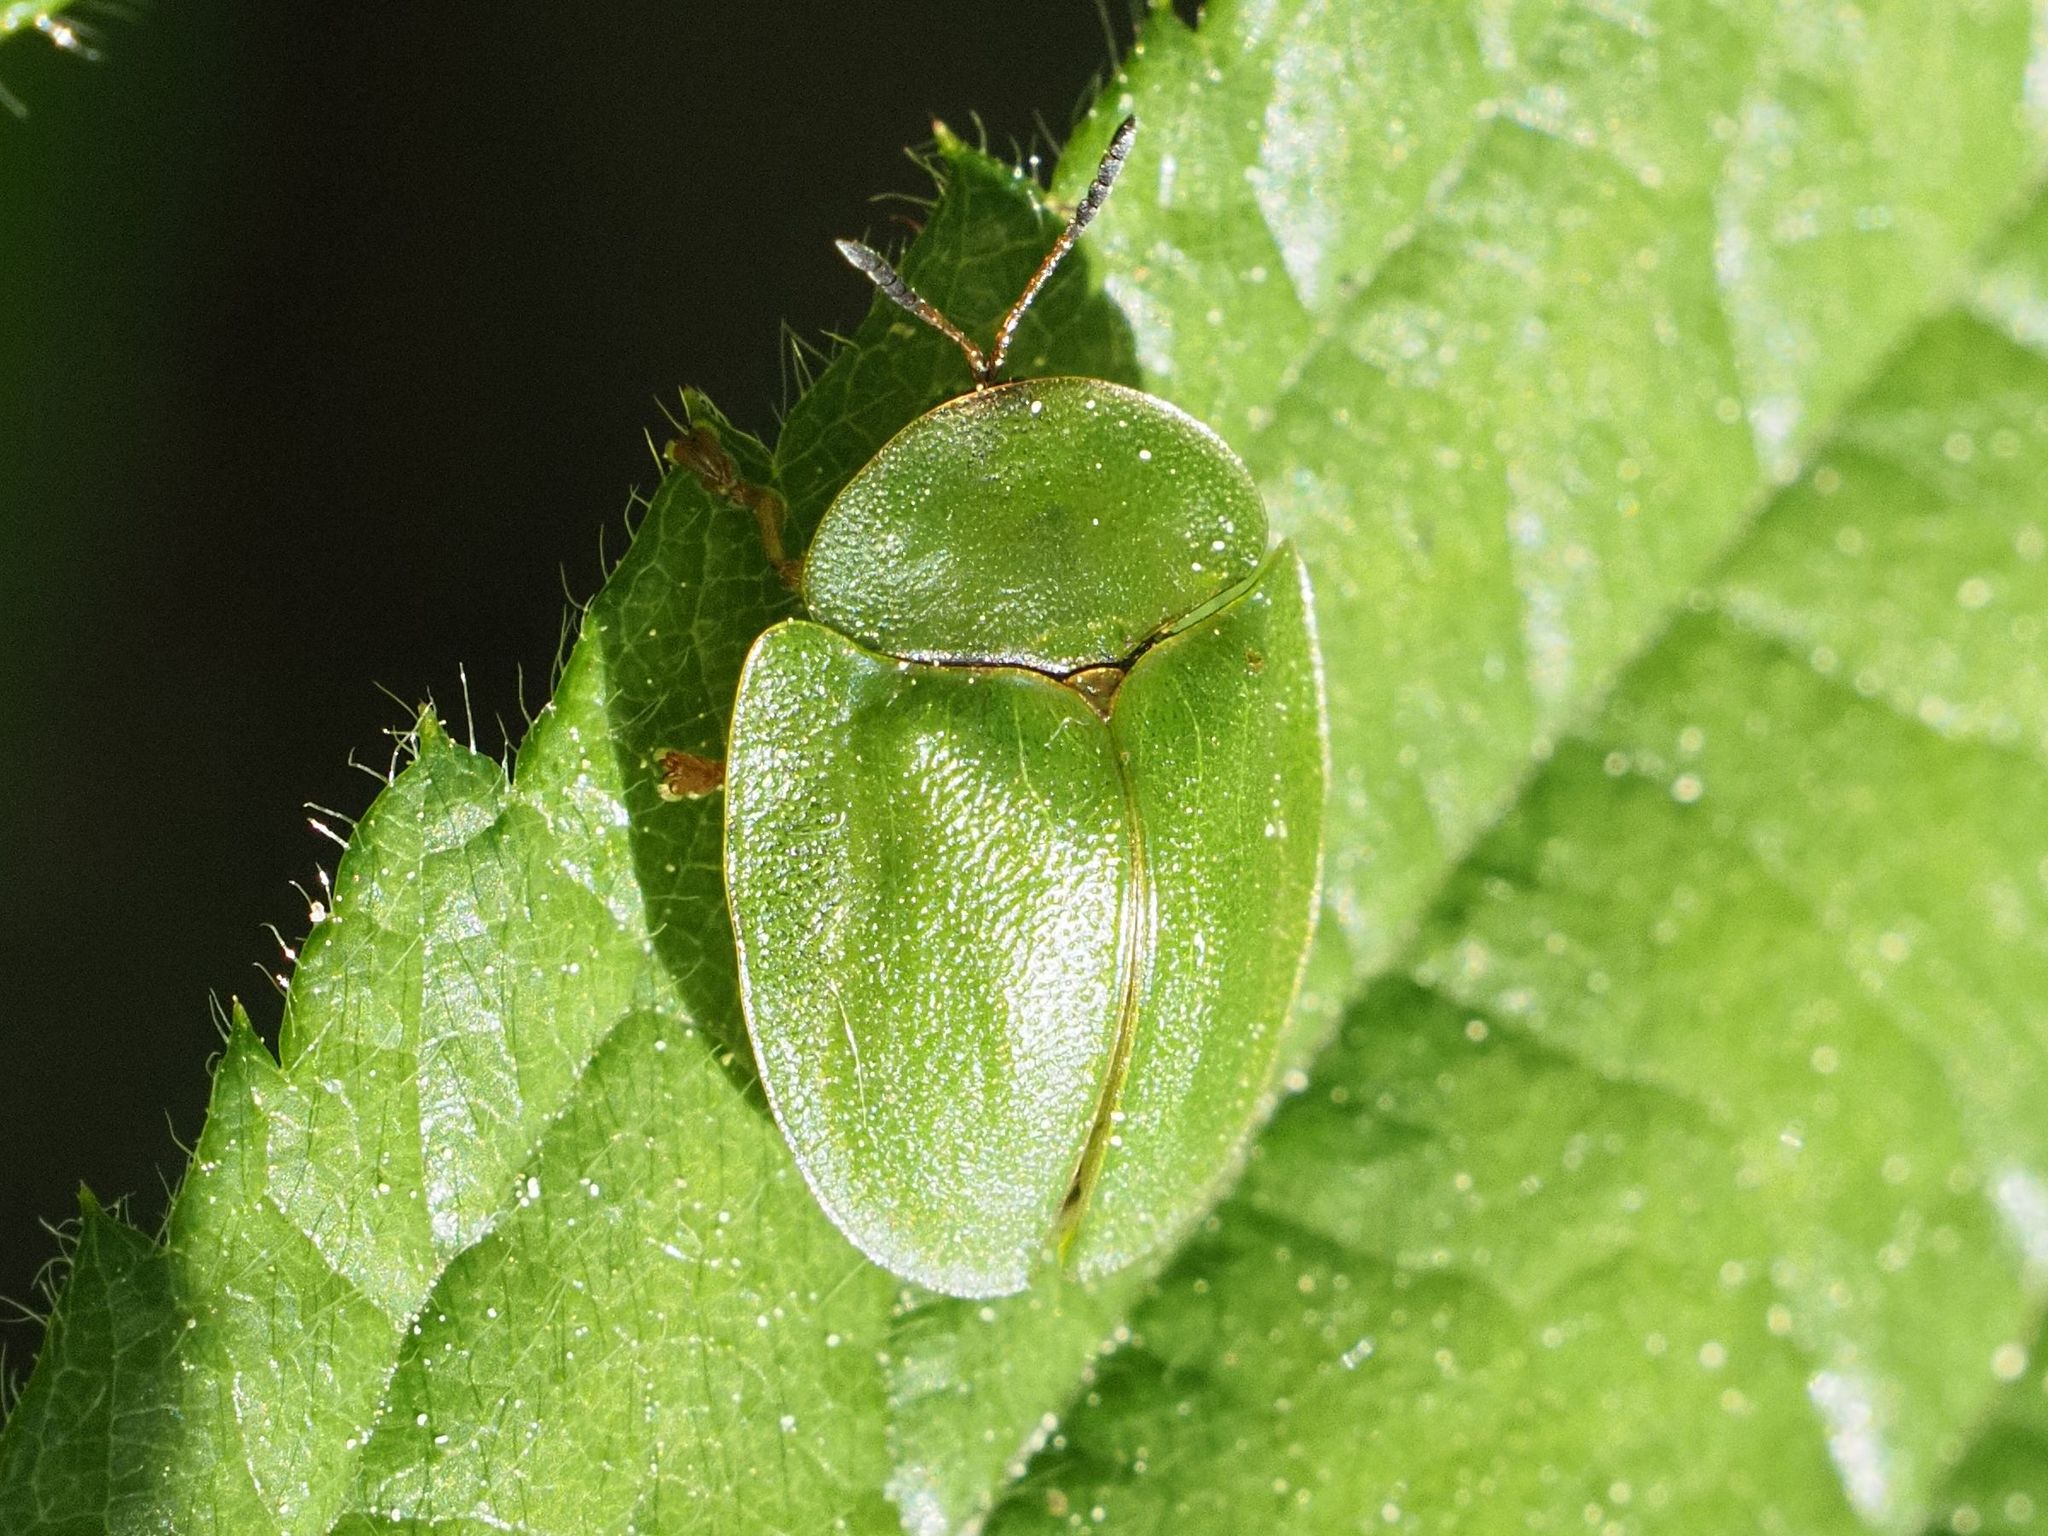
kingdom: Animalia
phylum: Arthropoda
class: Insecta
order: Coleoptera
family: Chrysomelidae
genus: Cassida
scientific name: Cassida viridis
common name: Green tortoise beetle
